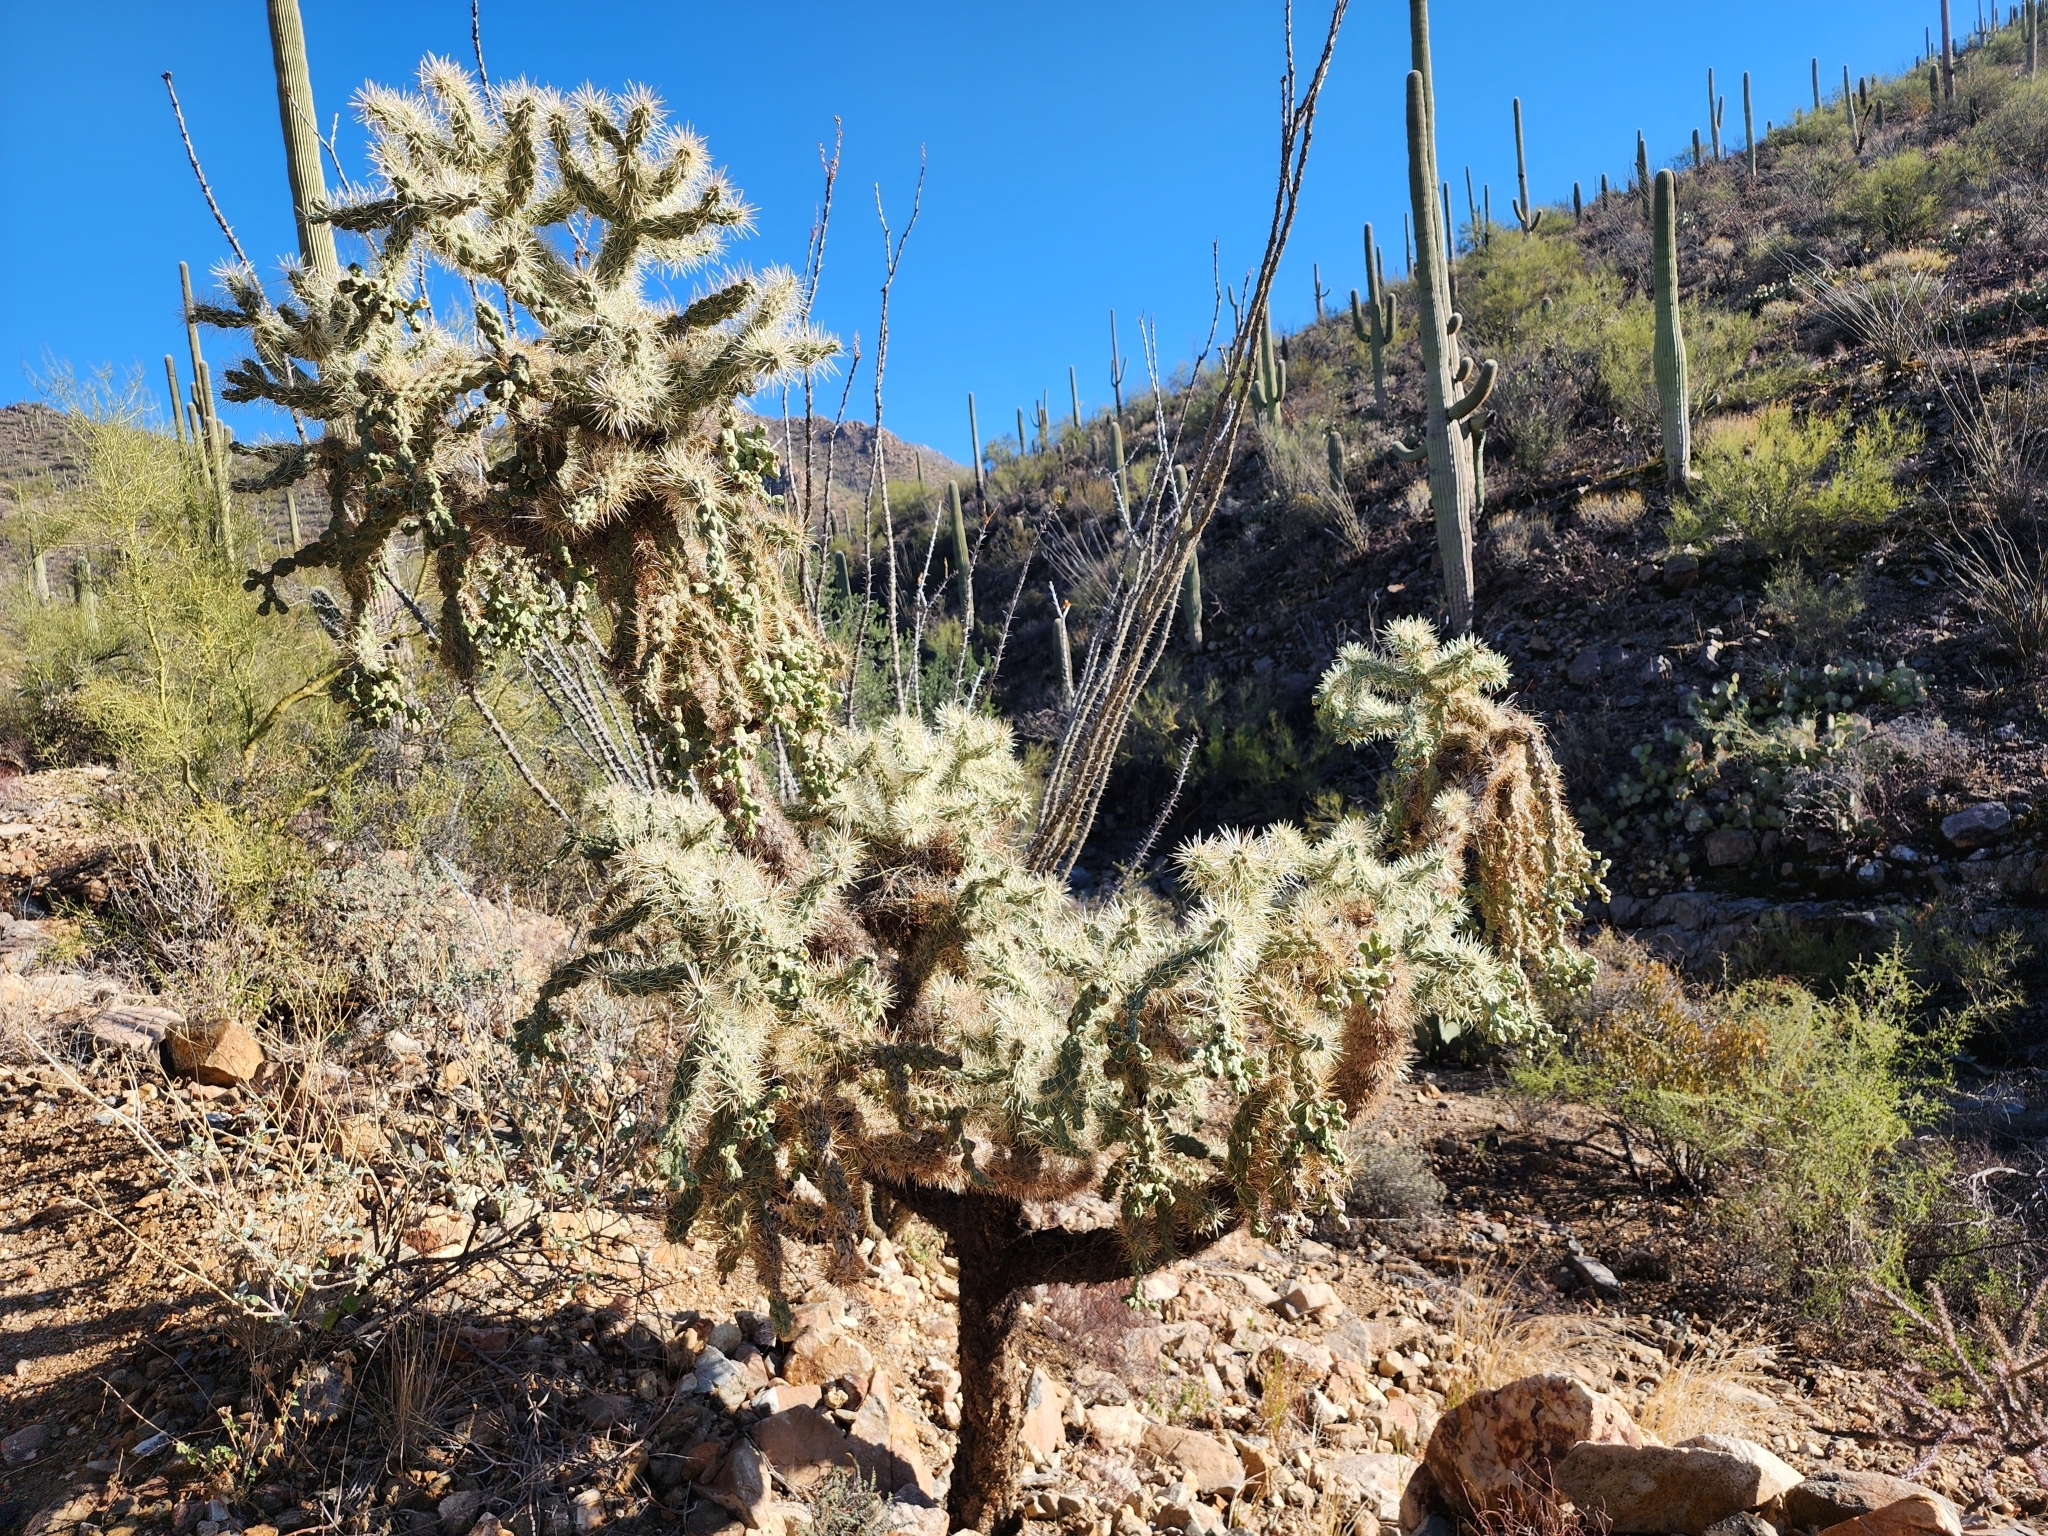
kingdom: Plantae
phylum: Tracheophyta
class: Magnoliopsida
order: Caryophyllales
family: Cactaceae
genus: Cylindropuntia
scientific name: Cylindropuntia fulgida
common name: Jumping cholla
